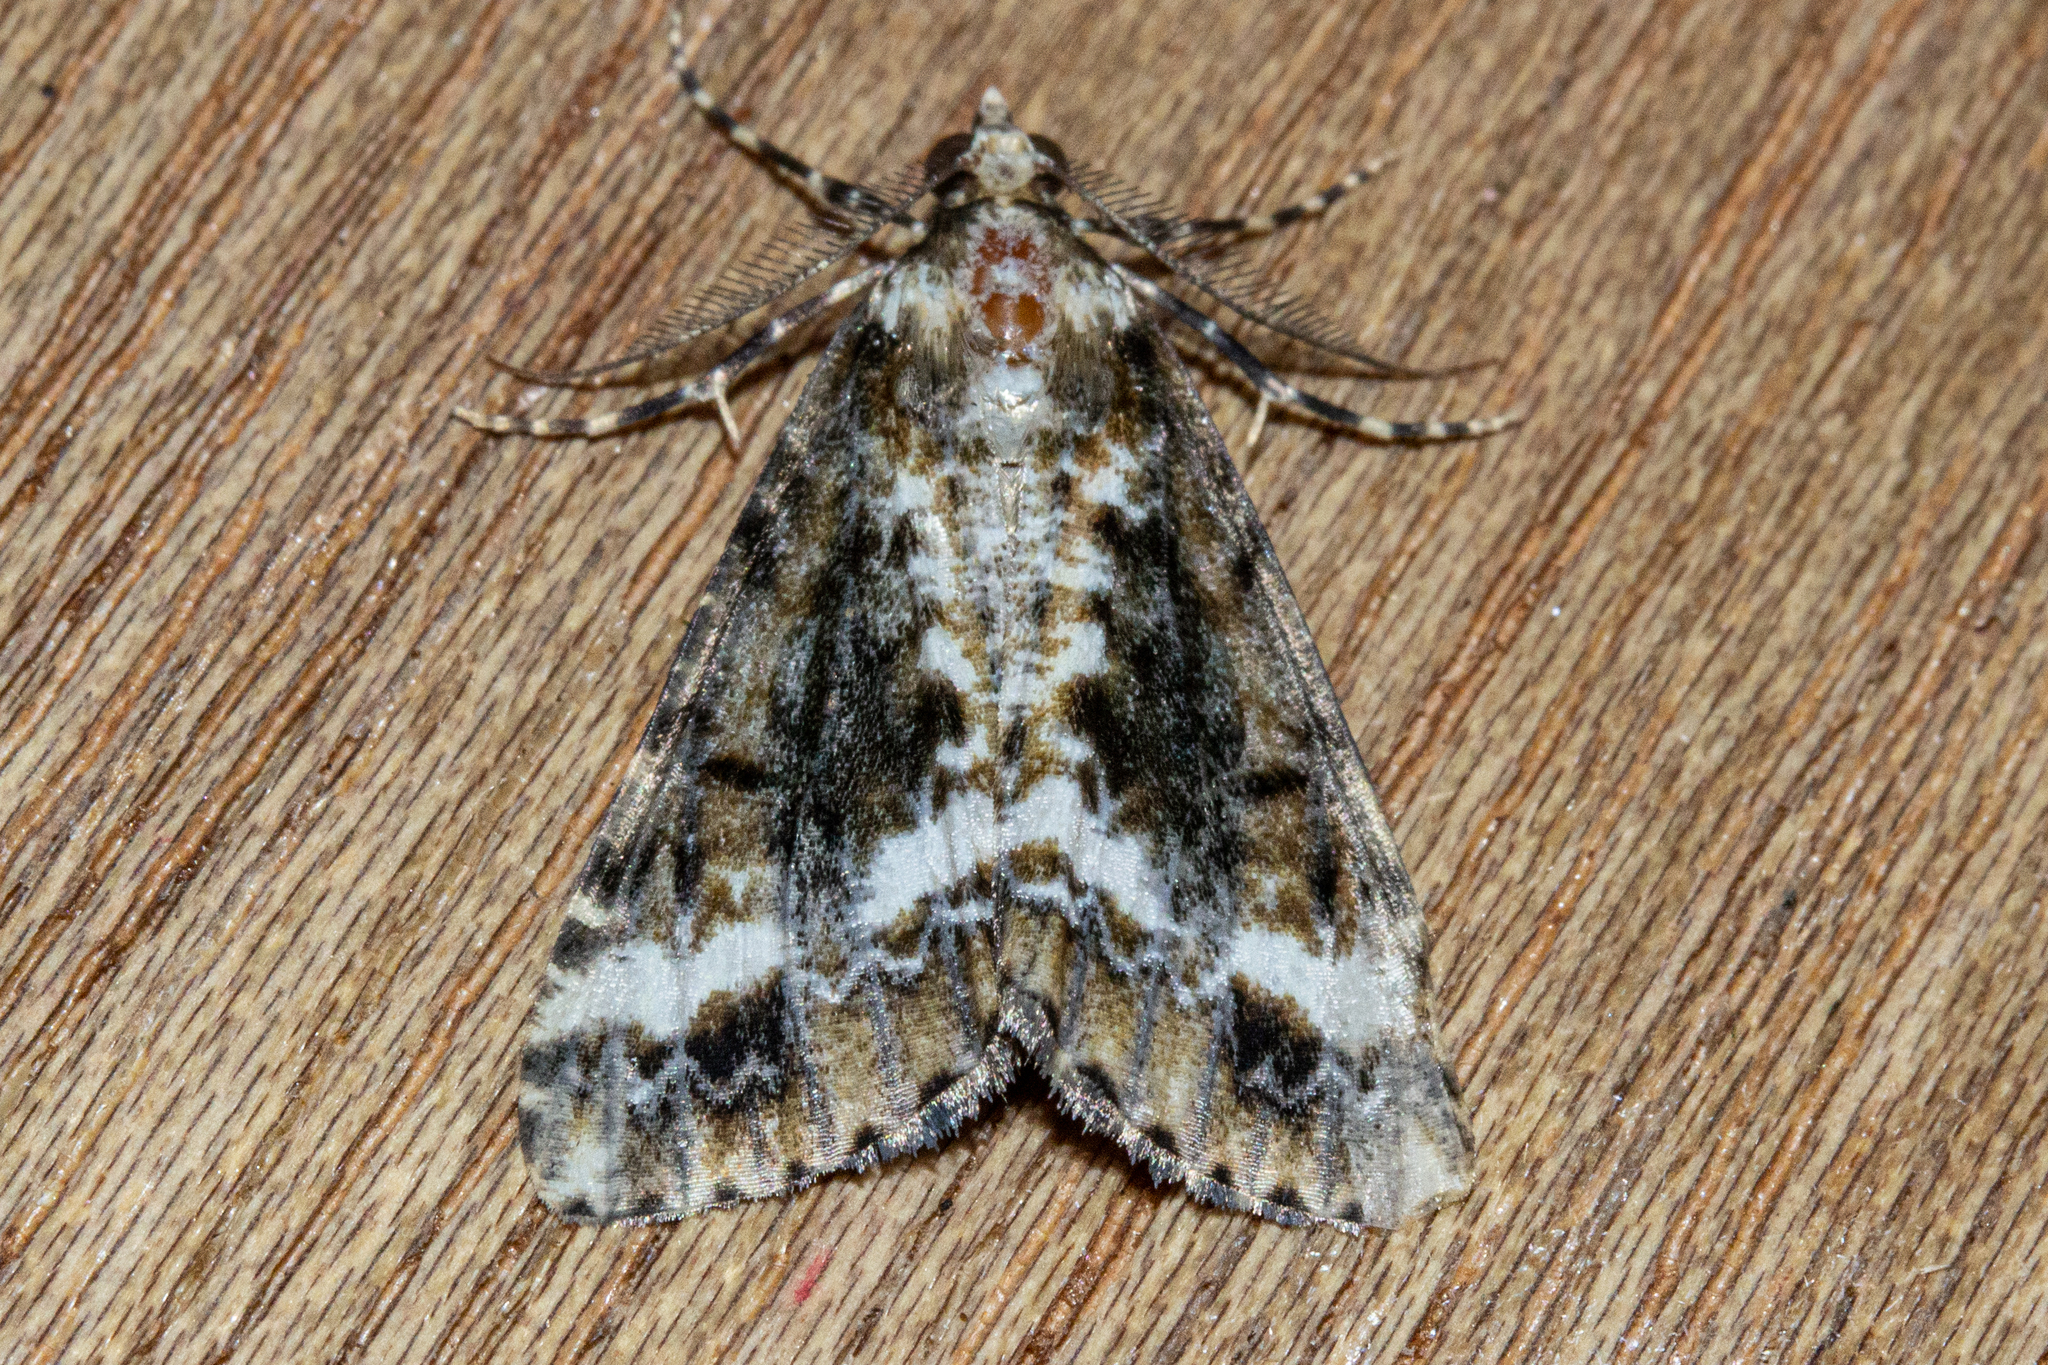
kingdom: Animalia
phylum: Arthropoda
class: Insecta
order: Lepidoptera
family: Geometridae
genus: Pseudocoremia
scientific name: Pseudocoremia leucelaea
